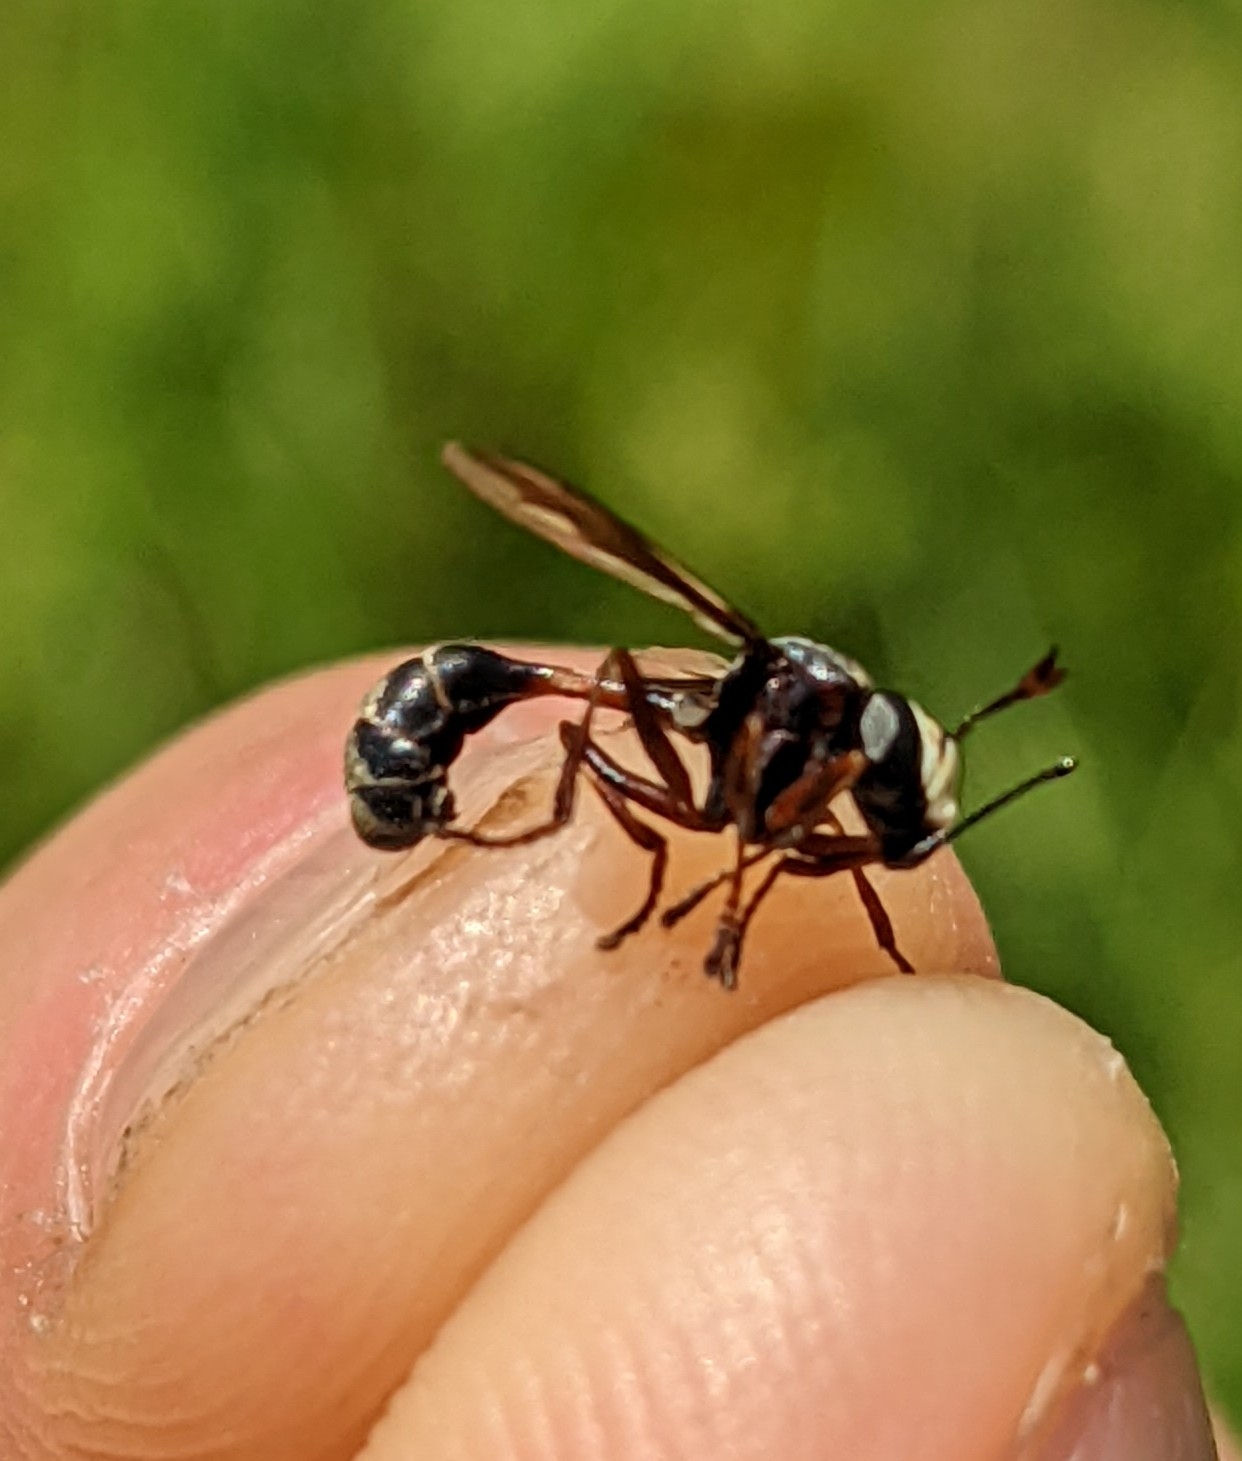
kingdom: Animalia
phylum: Arthropoda
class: Insecta
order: Diptera
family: Conopidae
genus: Physocephala
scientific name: Physocephala furcillata
